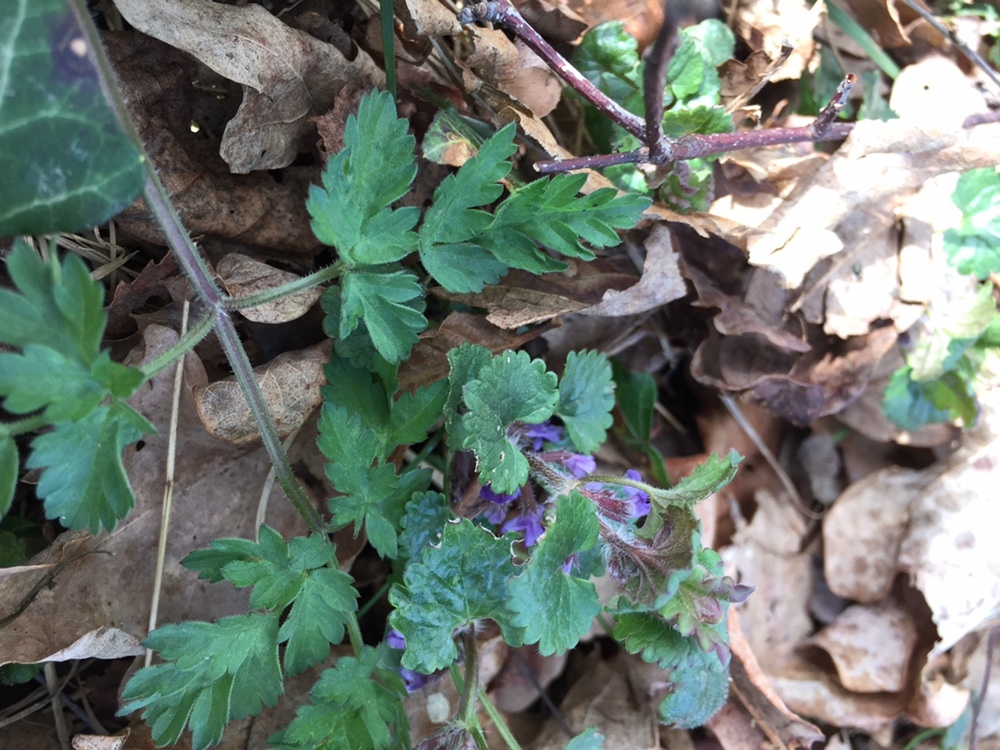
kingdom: Plantae
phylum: Tracheophyta
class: Magnoliopsida
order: Lamiales
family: Lamiaceae
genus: Glechoma
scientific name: Glechoma hederacea
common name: Ground ivy
